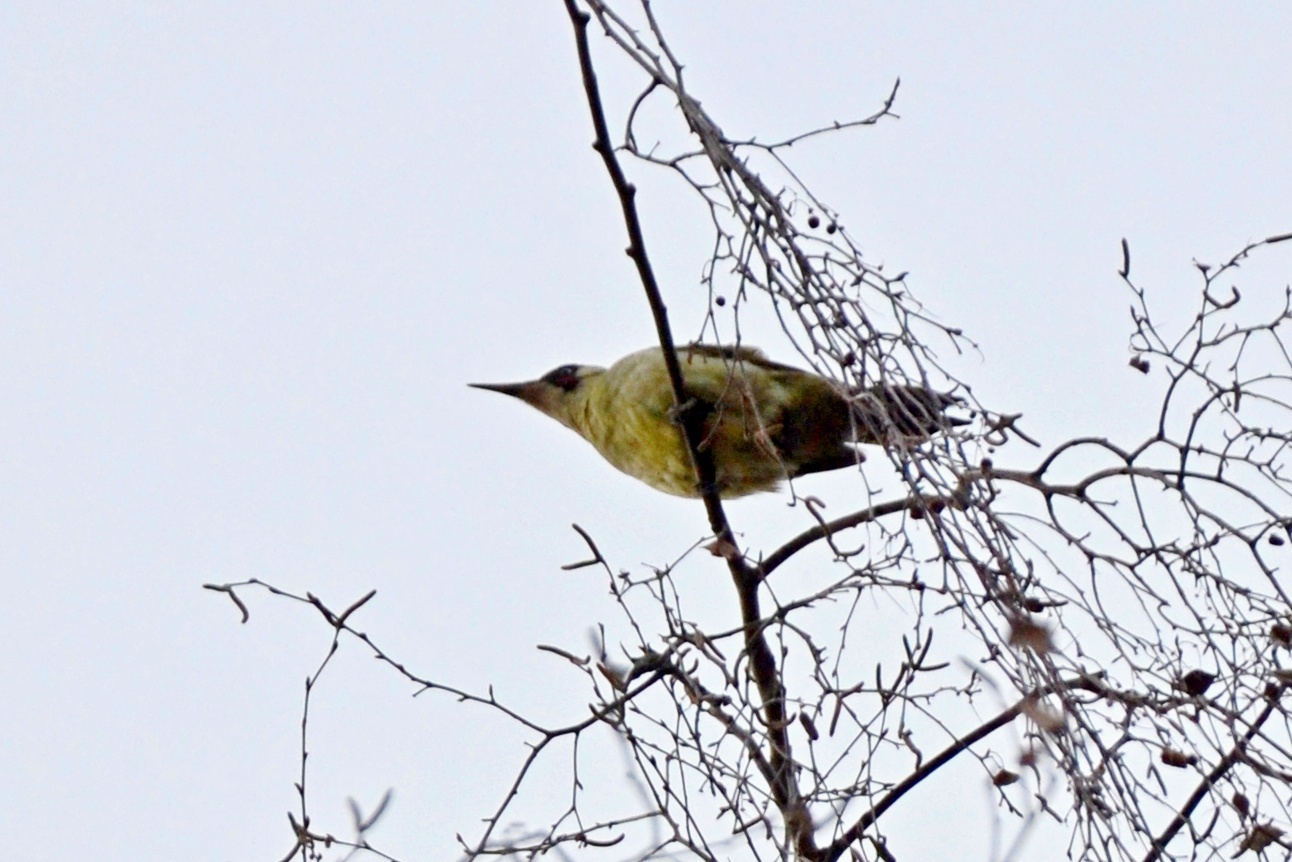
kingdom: Animalia
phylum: Chordata
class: Aves
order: Piciformes
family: Picidae
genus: Picus
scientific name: Picus viridis
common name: European green woodpecker
